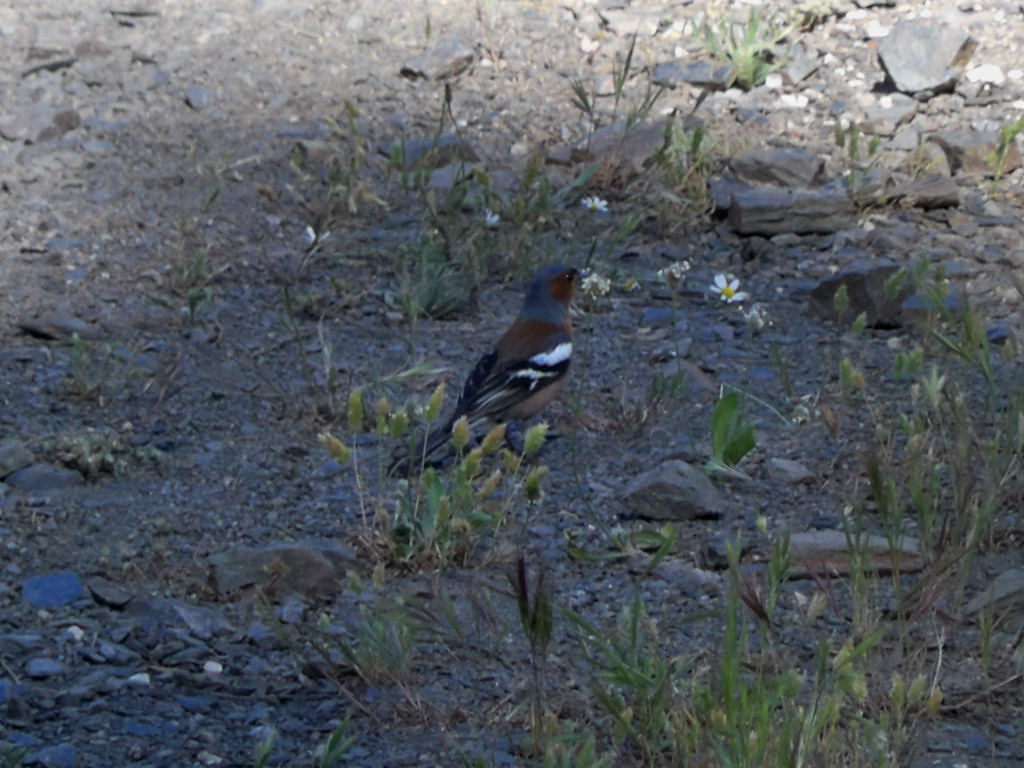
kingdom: Animalia
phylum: Chordata
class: Aves
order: Passeriformes
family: Fringillidae
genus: Fringilla
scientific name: Fringilla coelebs
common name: Common chaffinch
